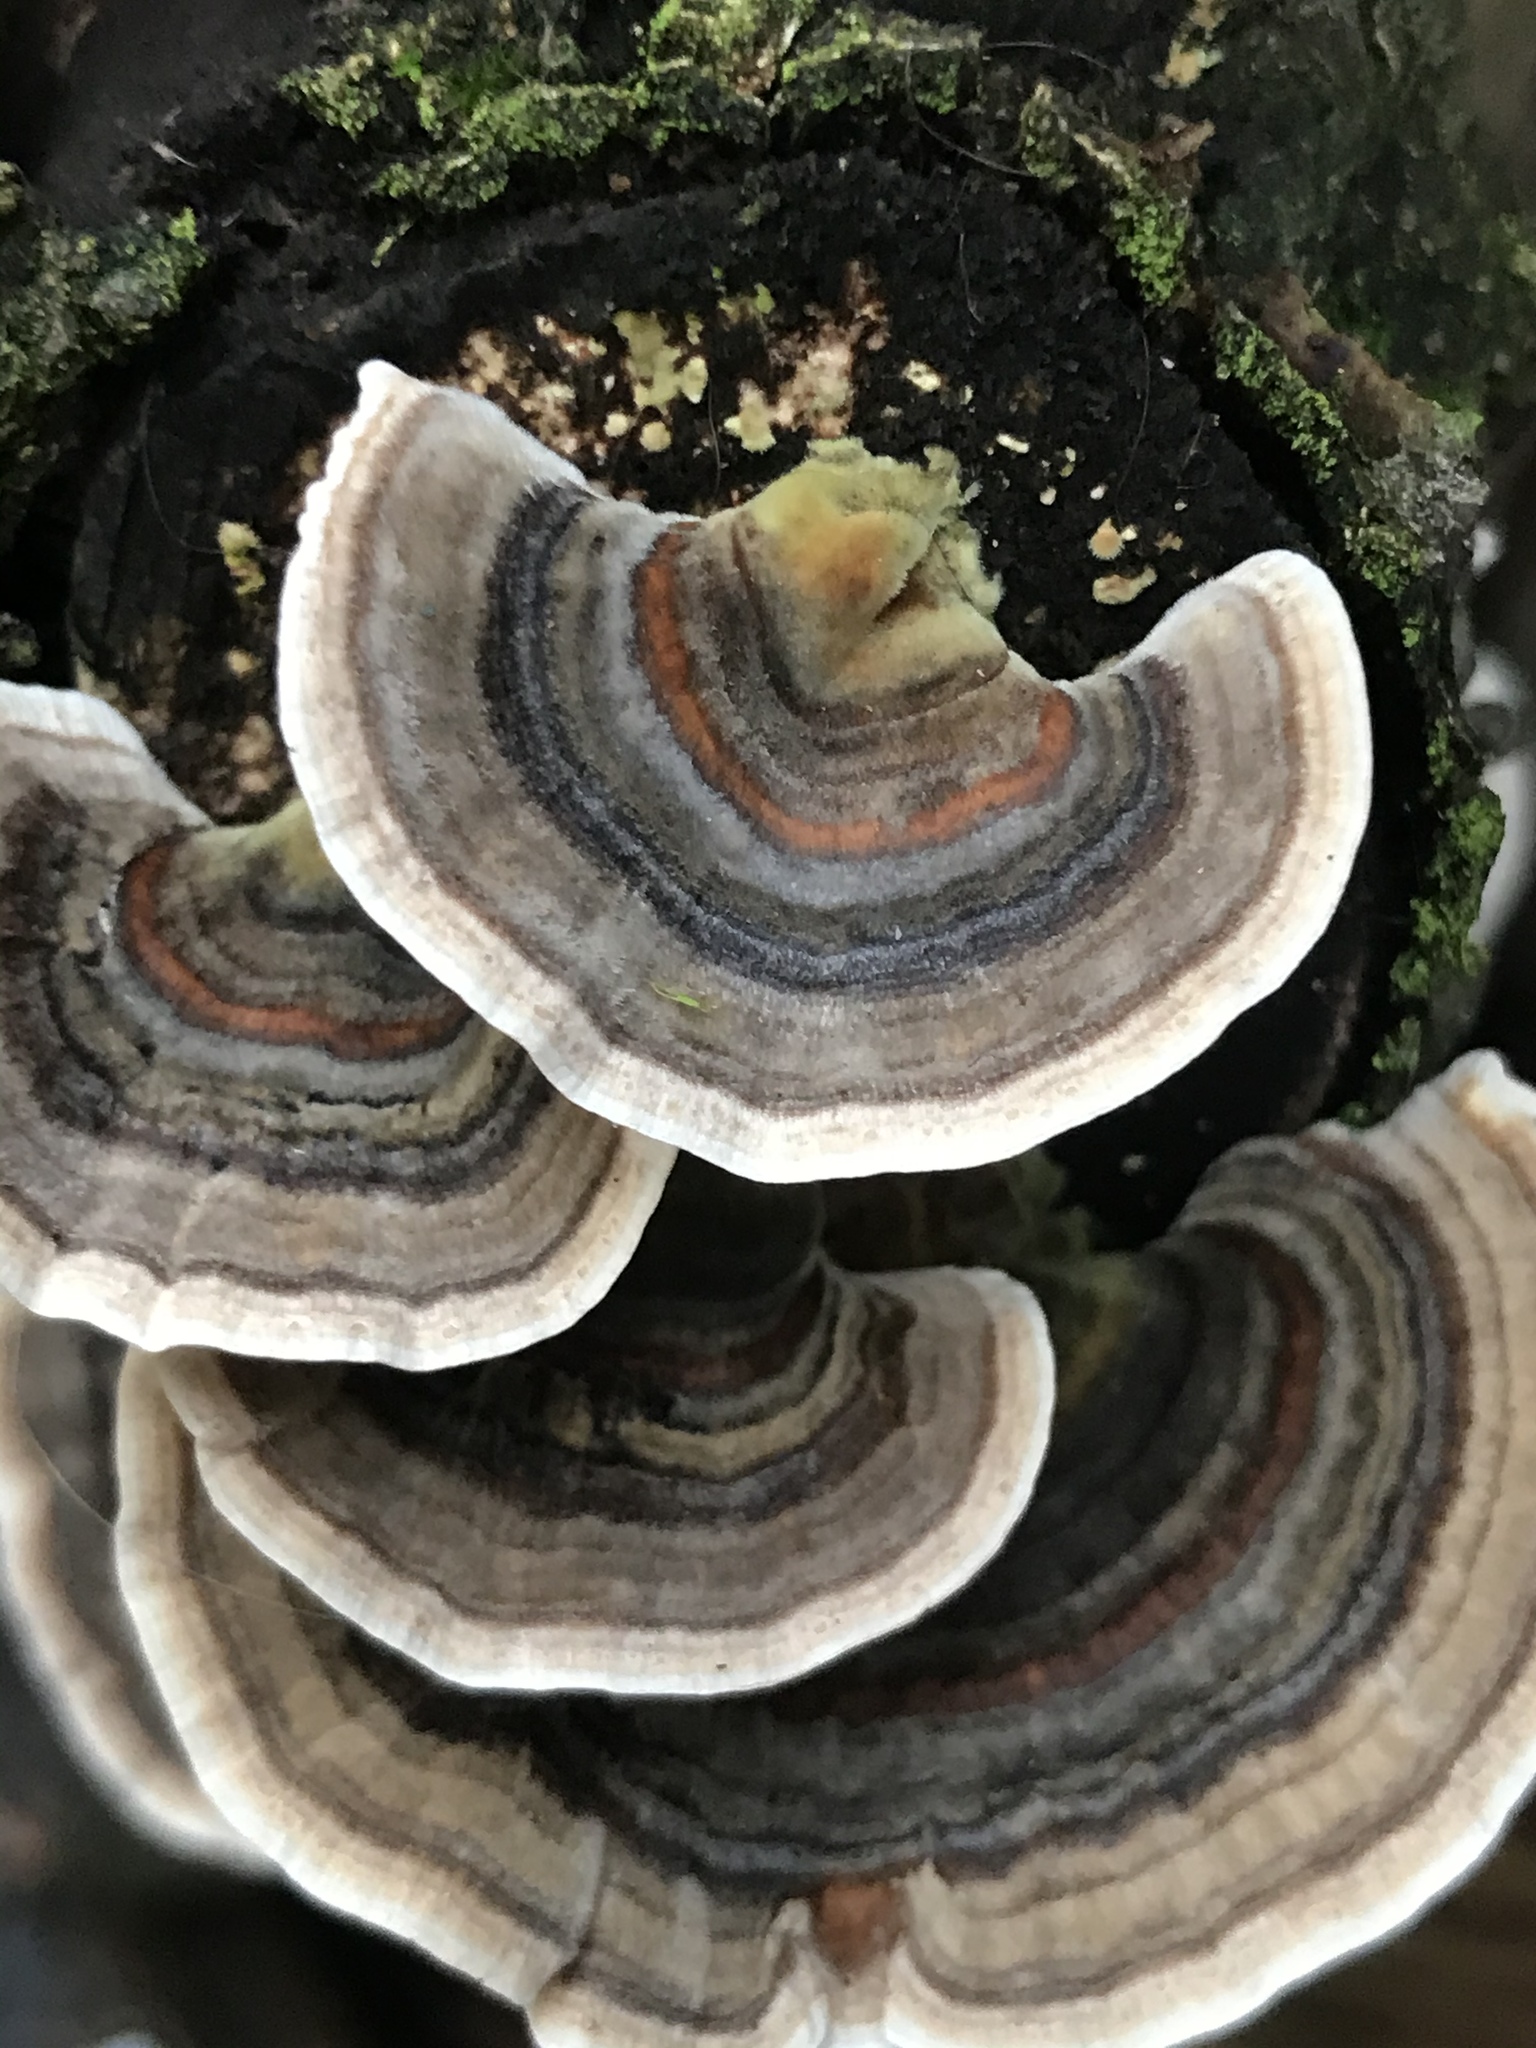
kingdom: Fungi
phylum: Basidiomycota
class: Agaricomycetes
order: Polyporales
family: Polyporaceae
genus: Trametes
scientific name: Trametes versicolor
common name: Turkeytail
